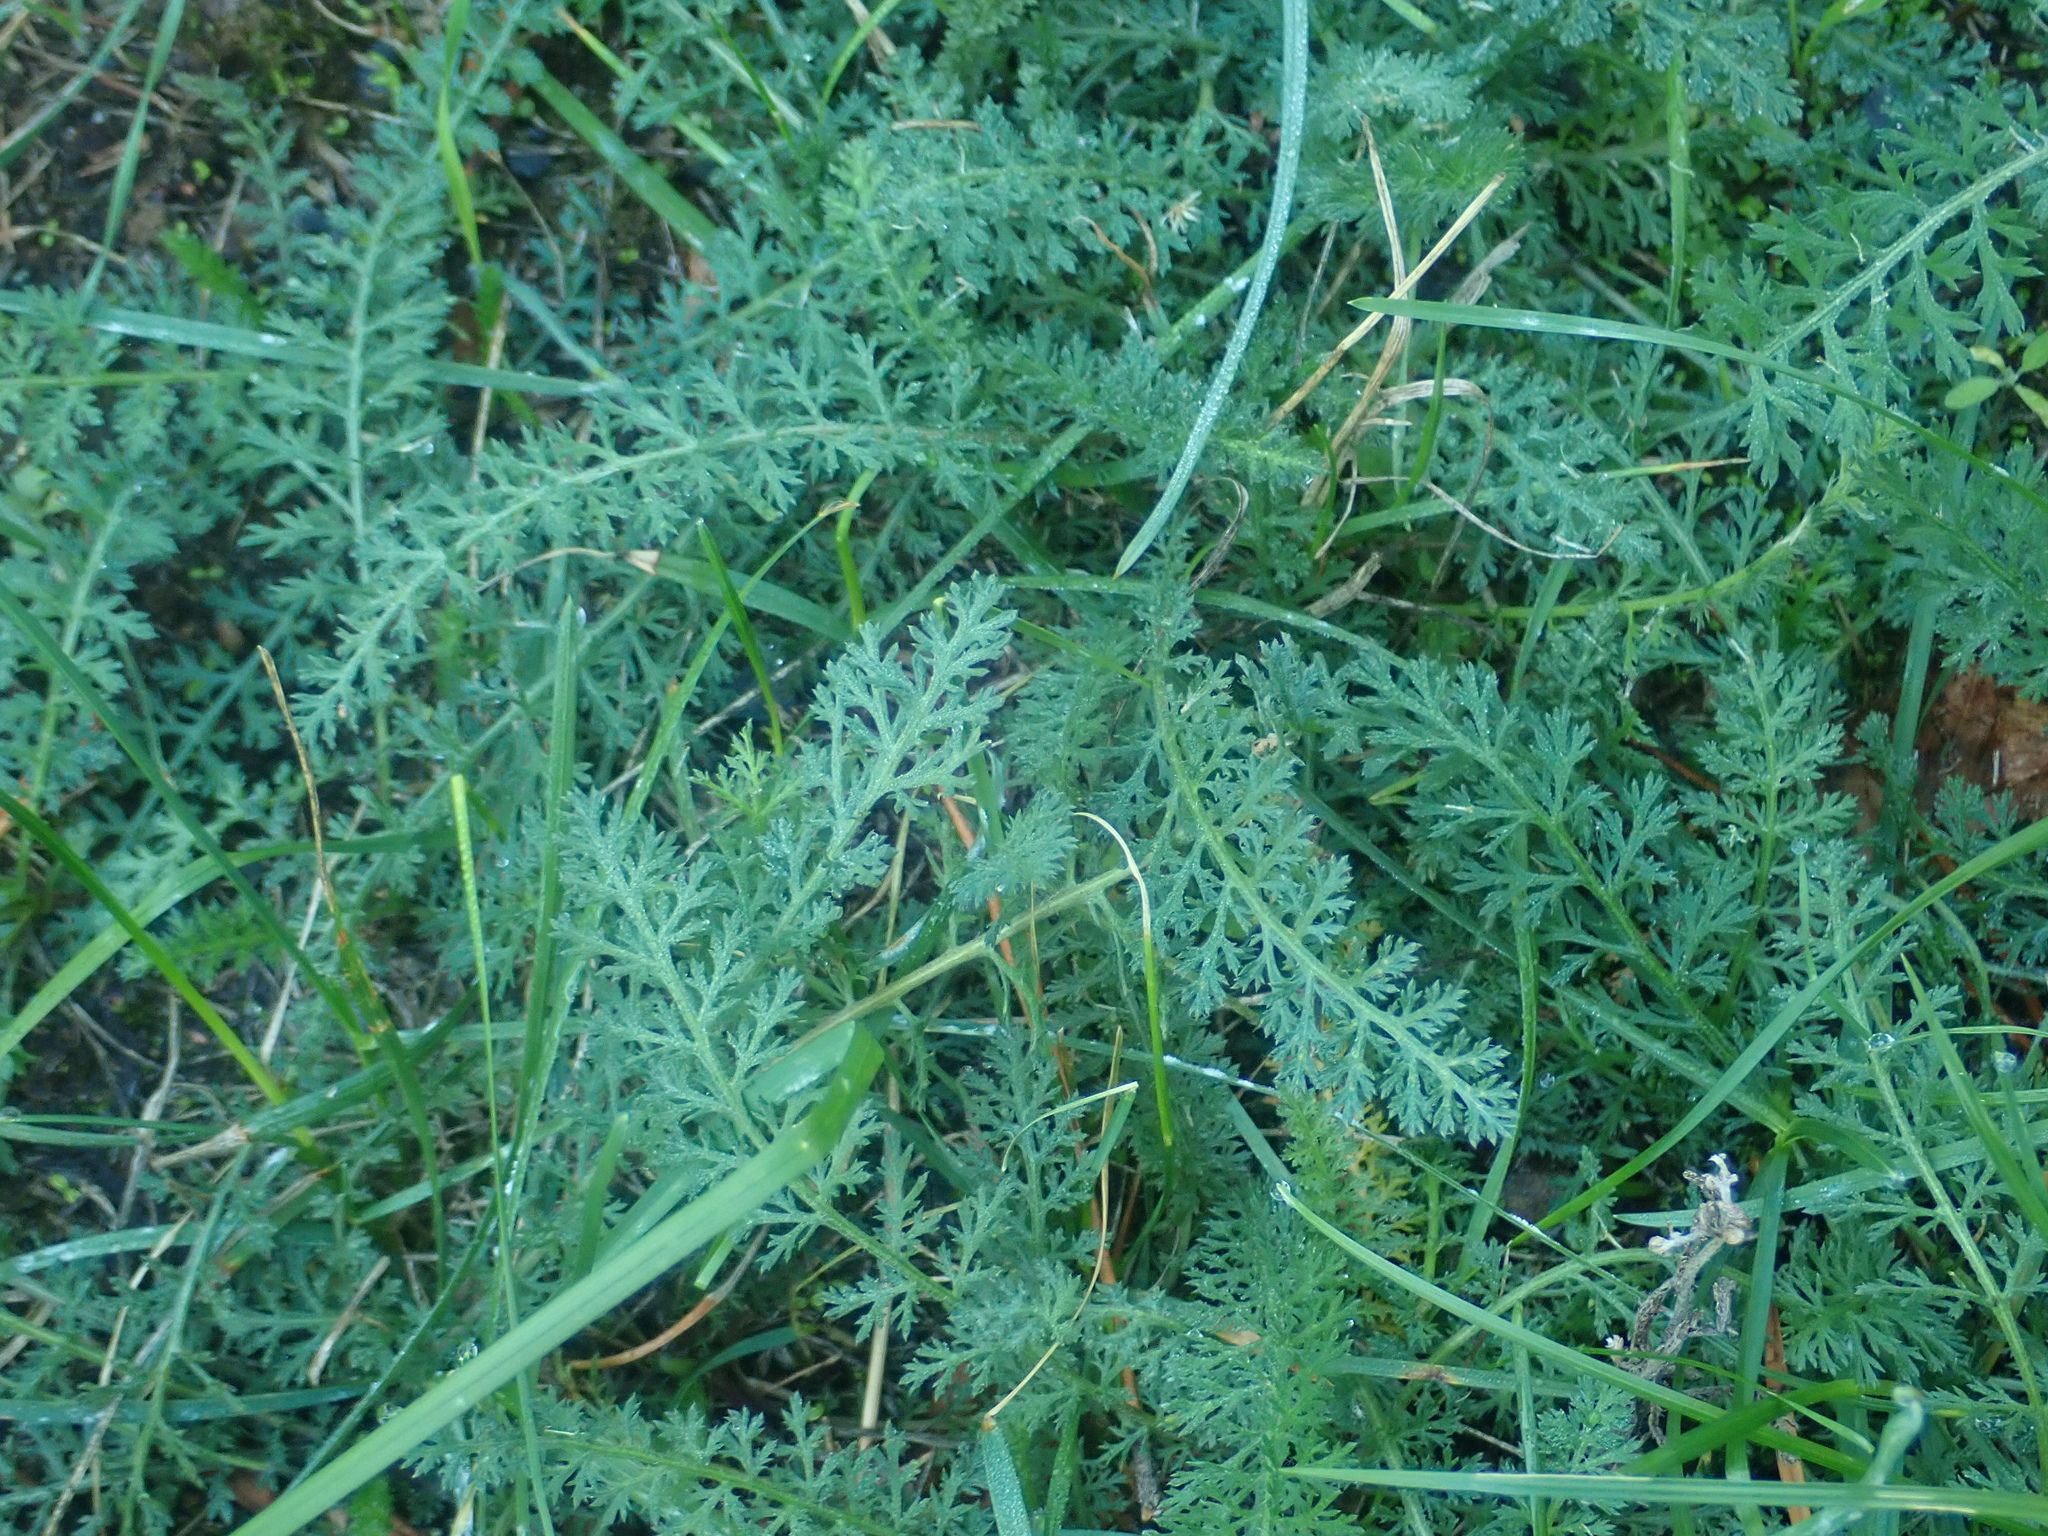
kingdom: Plantae
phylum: Tracheophyta
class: Magnoliopsida
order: Asterales
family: Asteraceae
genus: Achillea
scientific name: Achillea millefolium
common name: Yarrow
